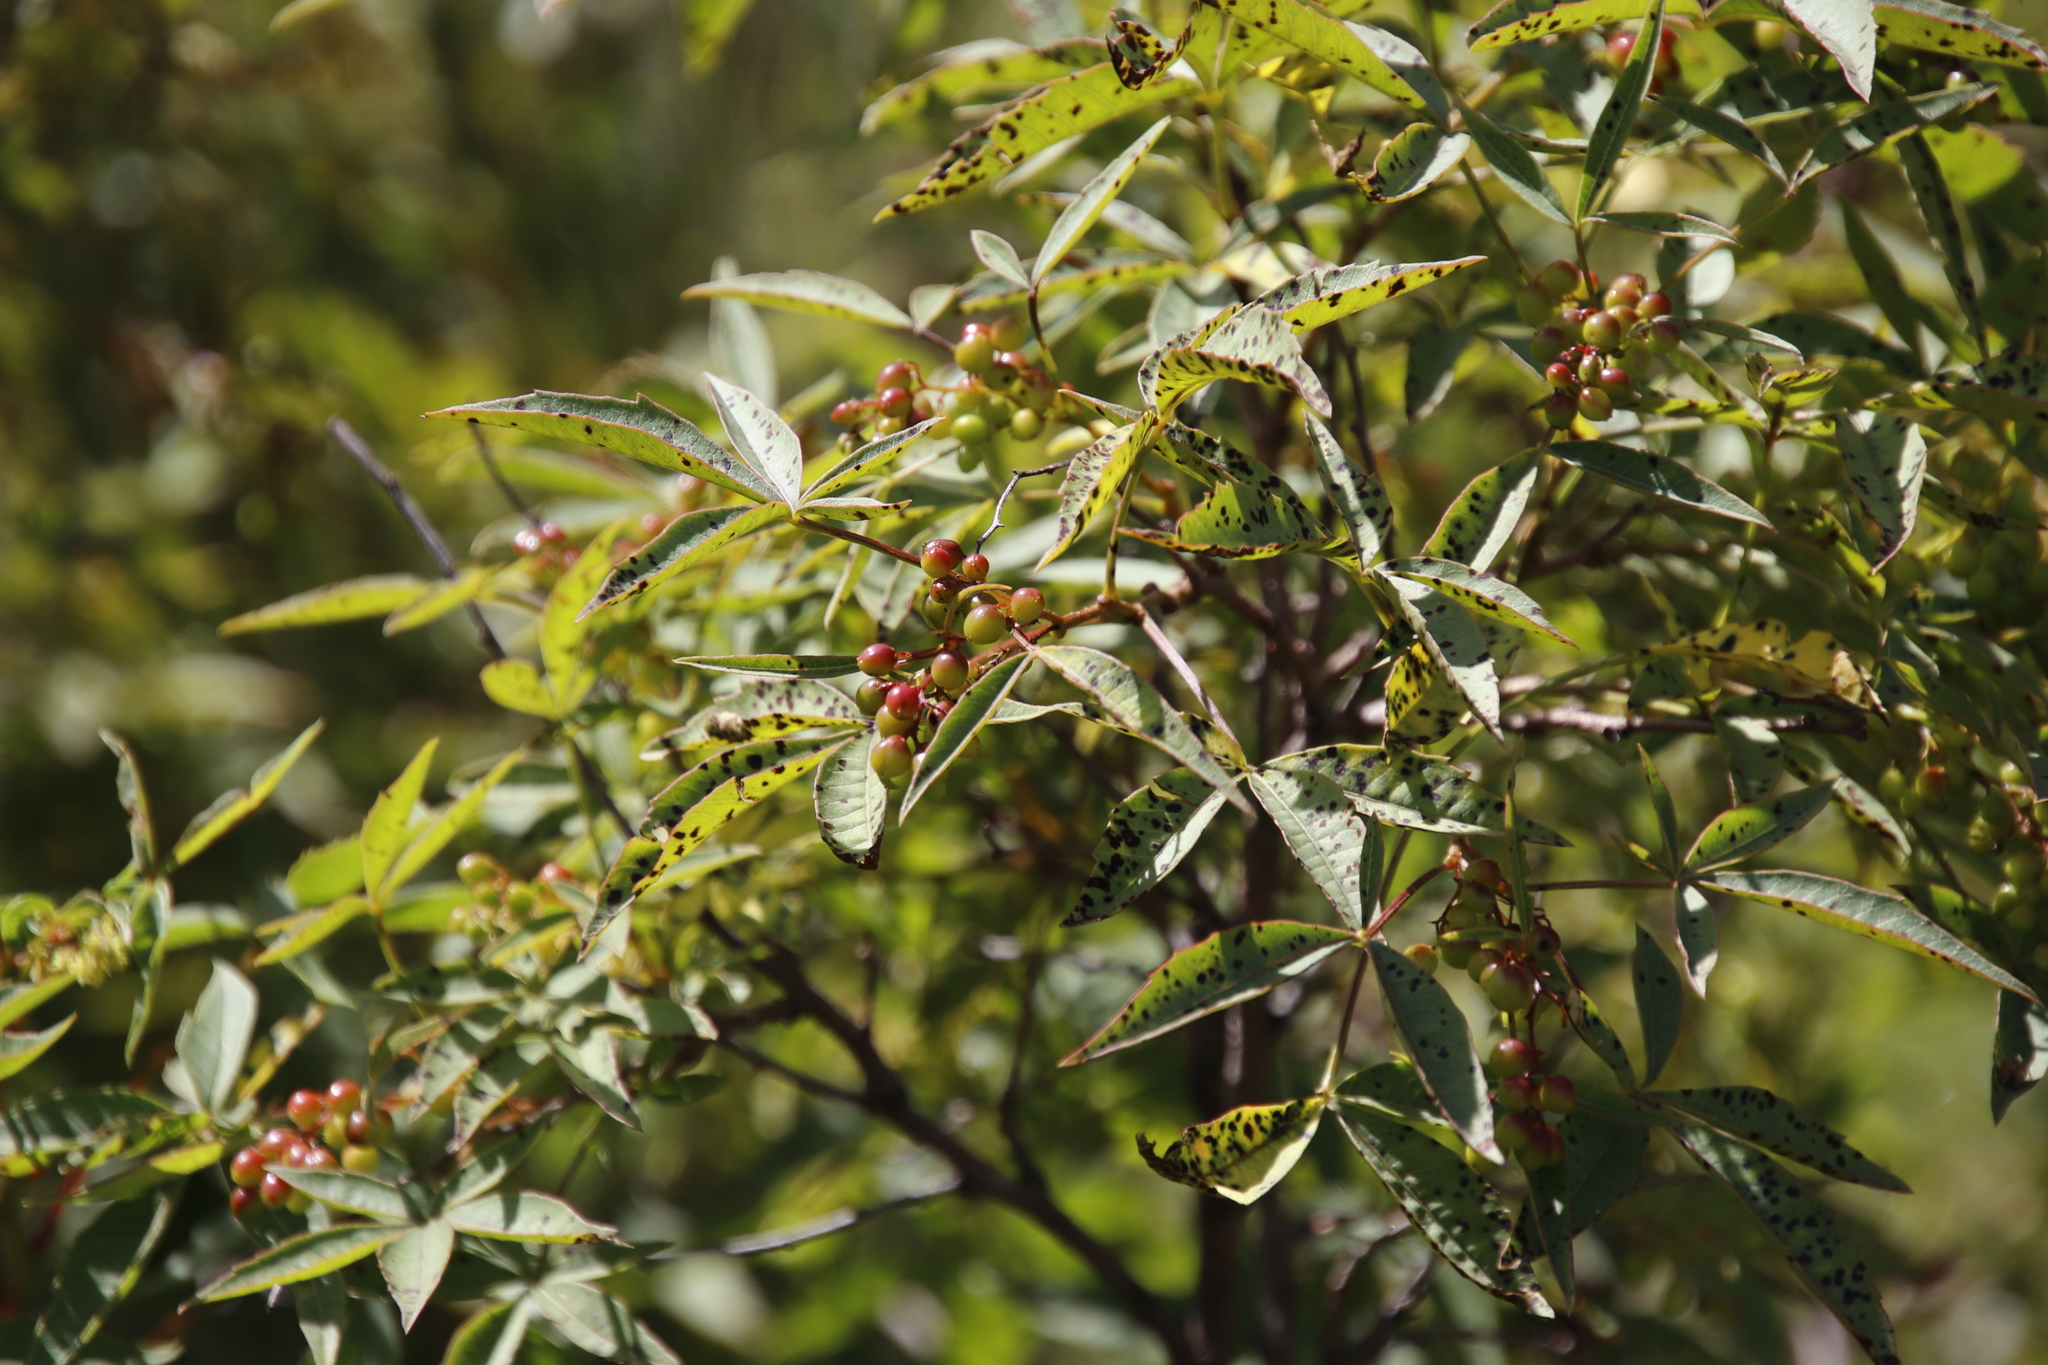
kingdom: Plantae
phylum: Tracheophyta
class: Magnoliopsida
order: Sapindales
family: Anacardiaceae
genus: Searsia
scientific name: Searsia montana
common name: Drakensberg karee
